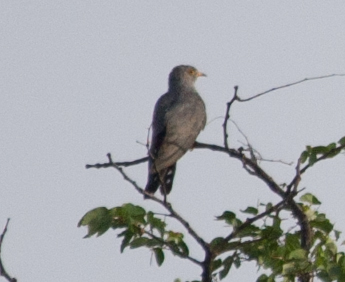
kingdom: Animalia
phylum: Chordata
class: Aves
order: Cuculiformes
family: Cuculidae
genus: Cuculus
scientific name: Cuculus gularis
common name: African cuckoo
